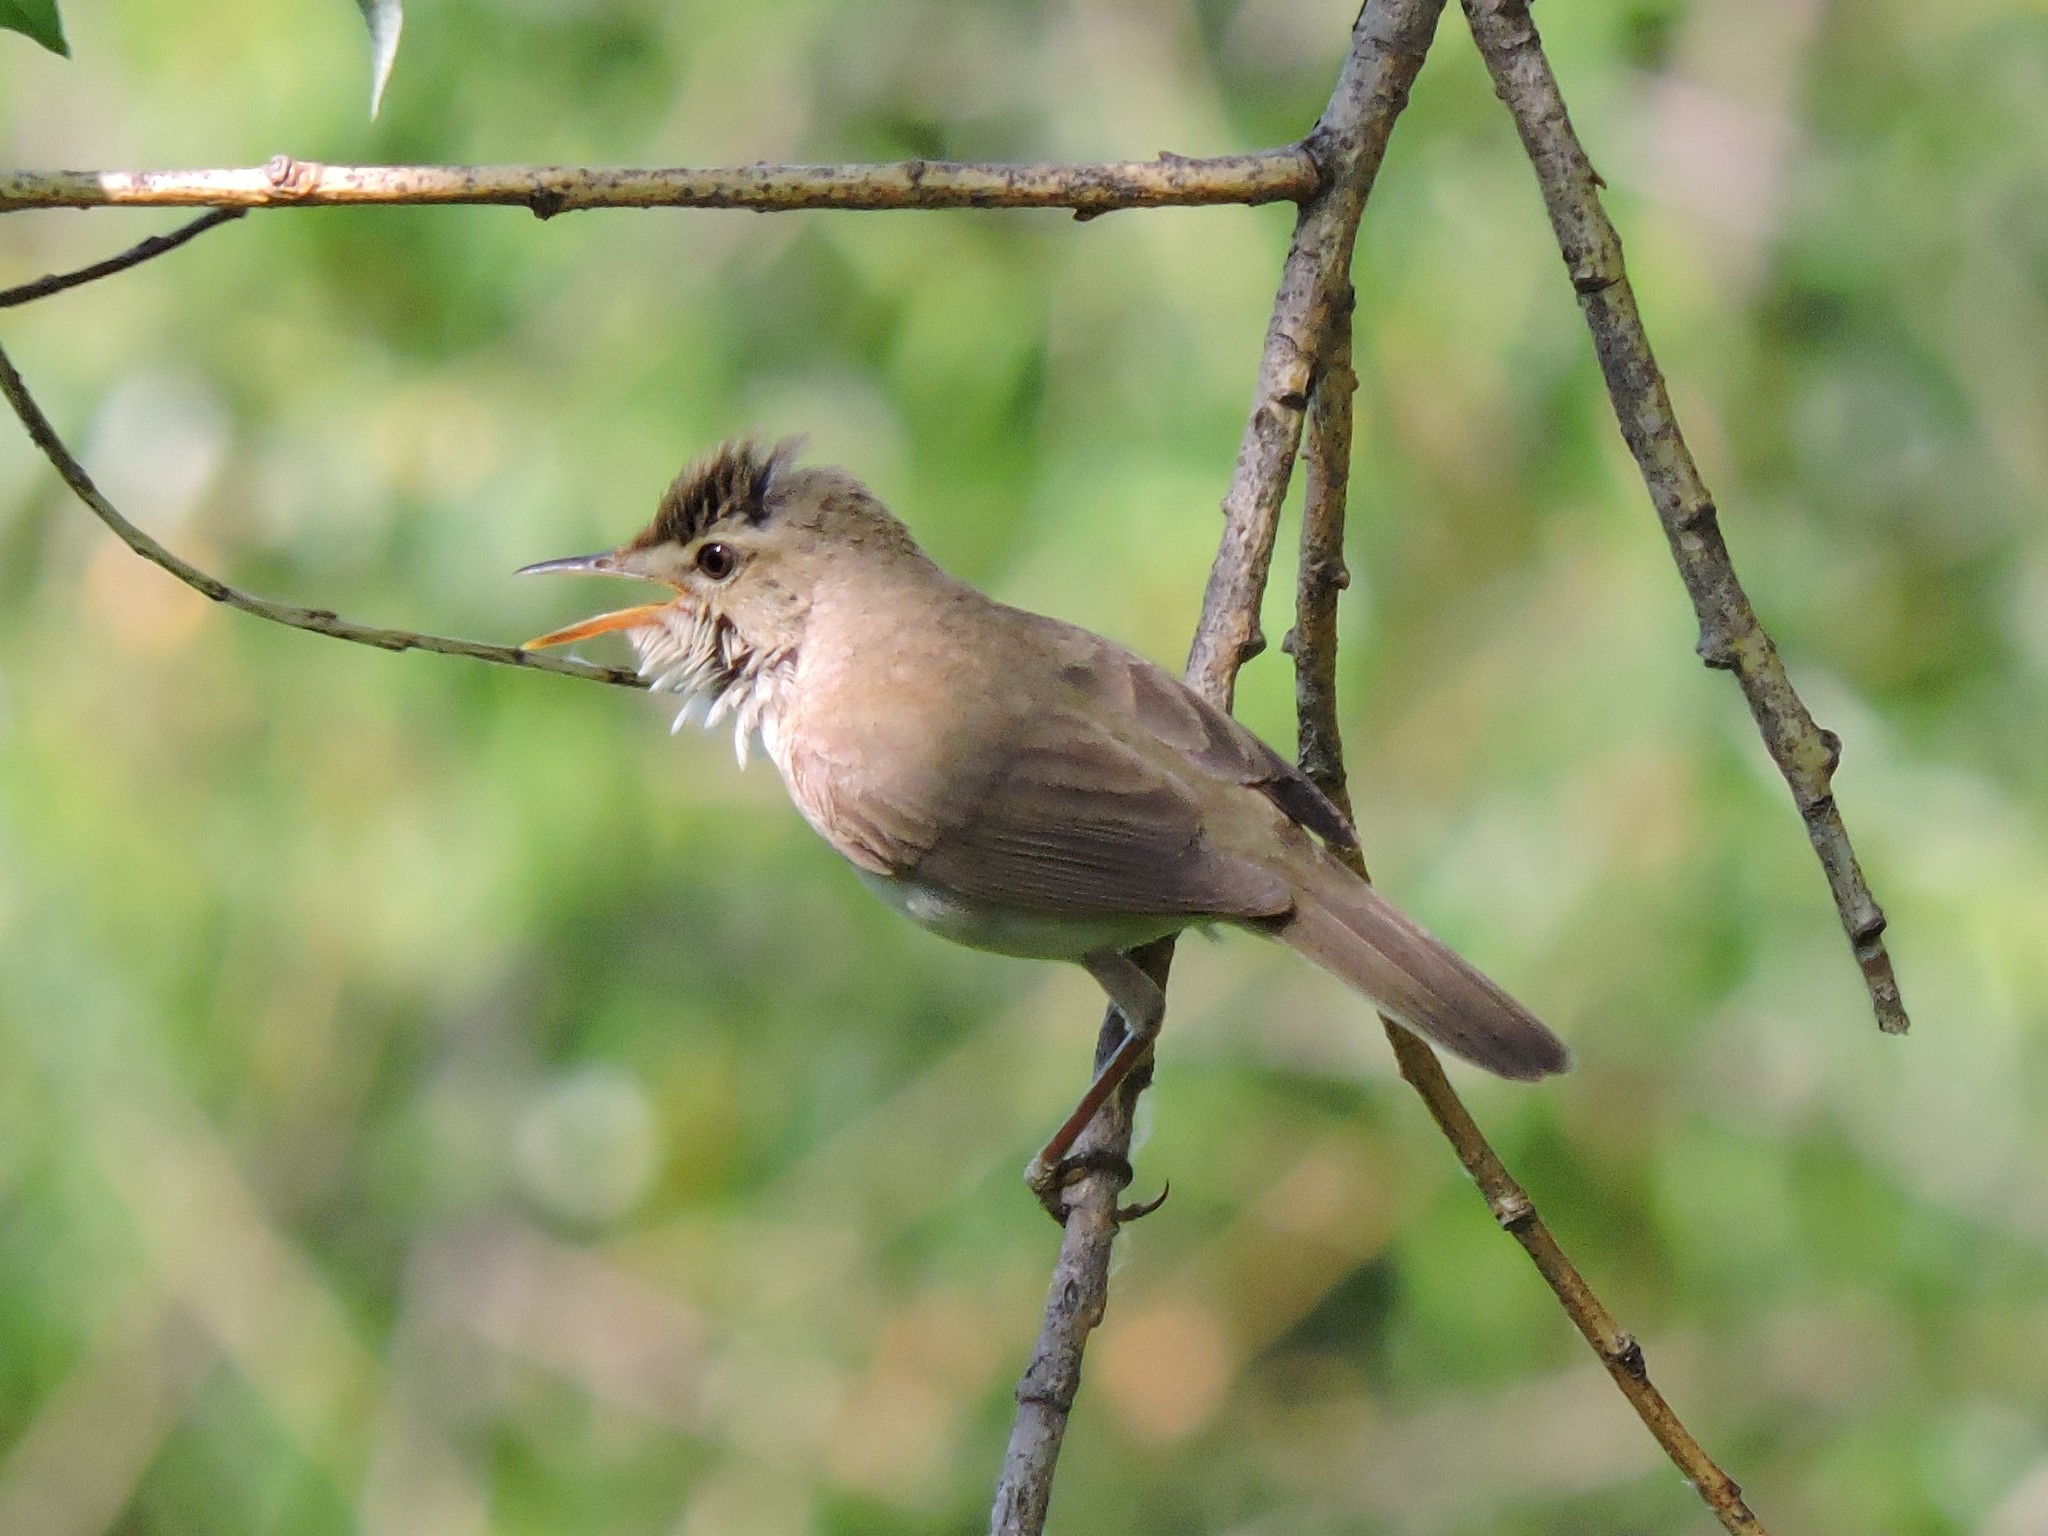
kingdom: Animalia
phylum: Chordata
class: Aves
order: Passeriformes
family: Acrocephalidae
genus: Acrocephalus
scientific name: Acrocephalus dumetorum
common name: Blyth's reed warbler
